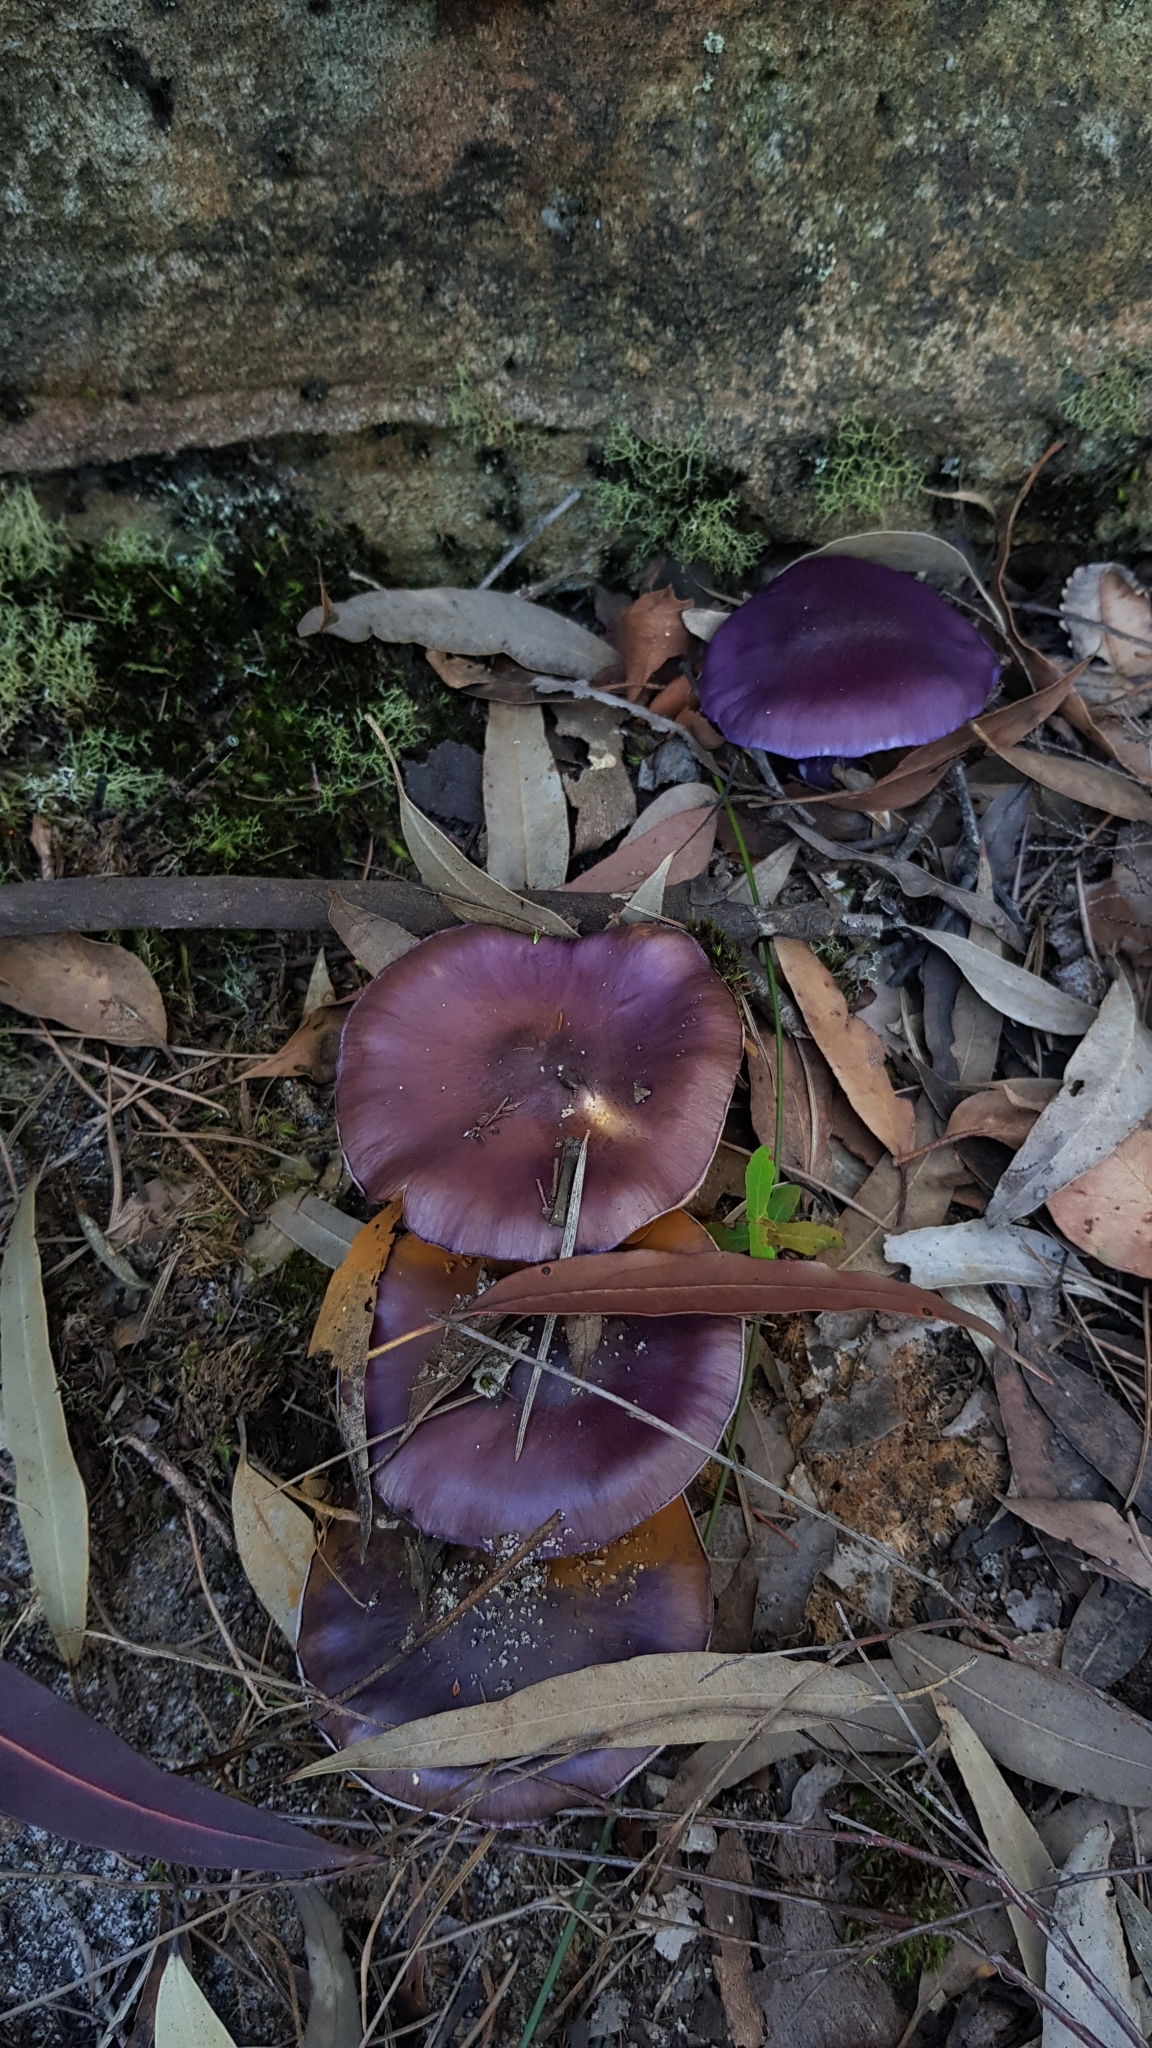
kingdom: Fungi
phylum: Basidiomycota
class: Agaricomycetes
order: Agaricales
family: Cortinariaceae
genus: Cortinarius
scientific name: Cortinarius archeri
